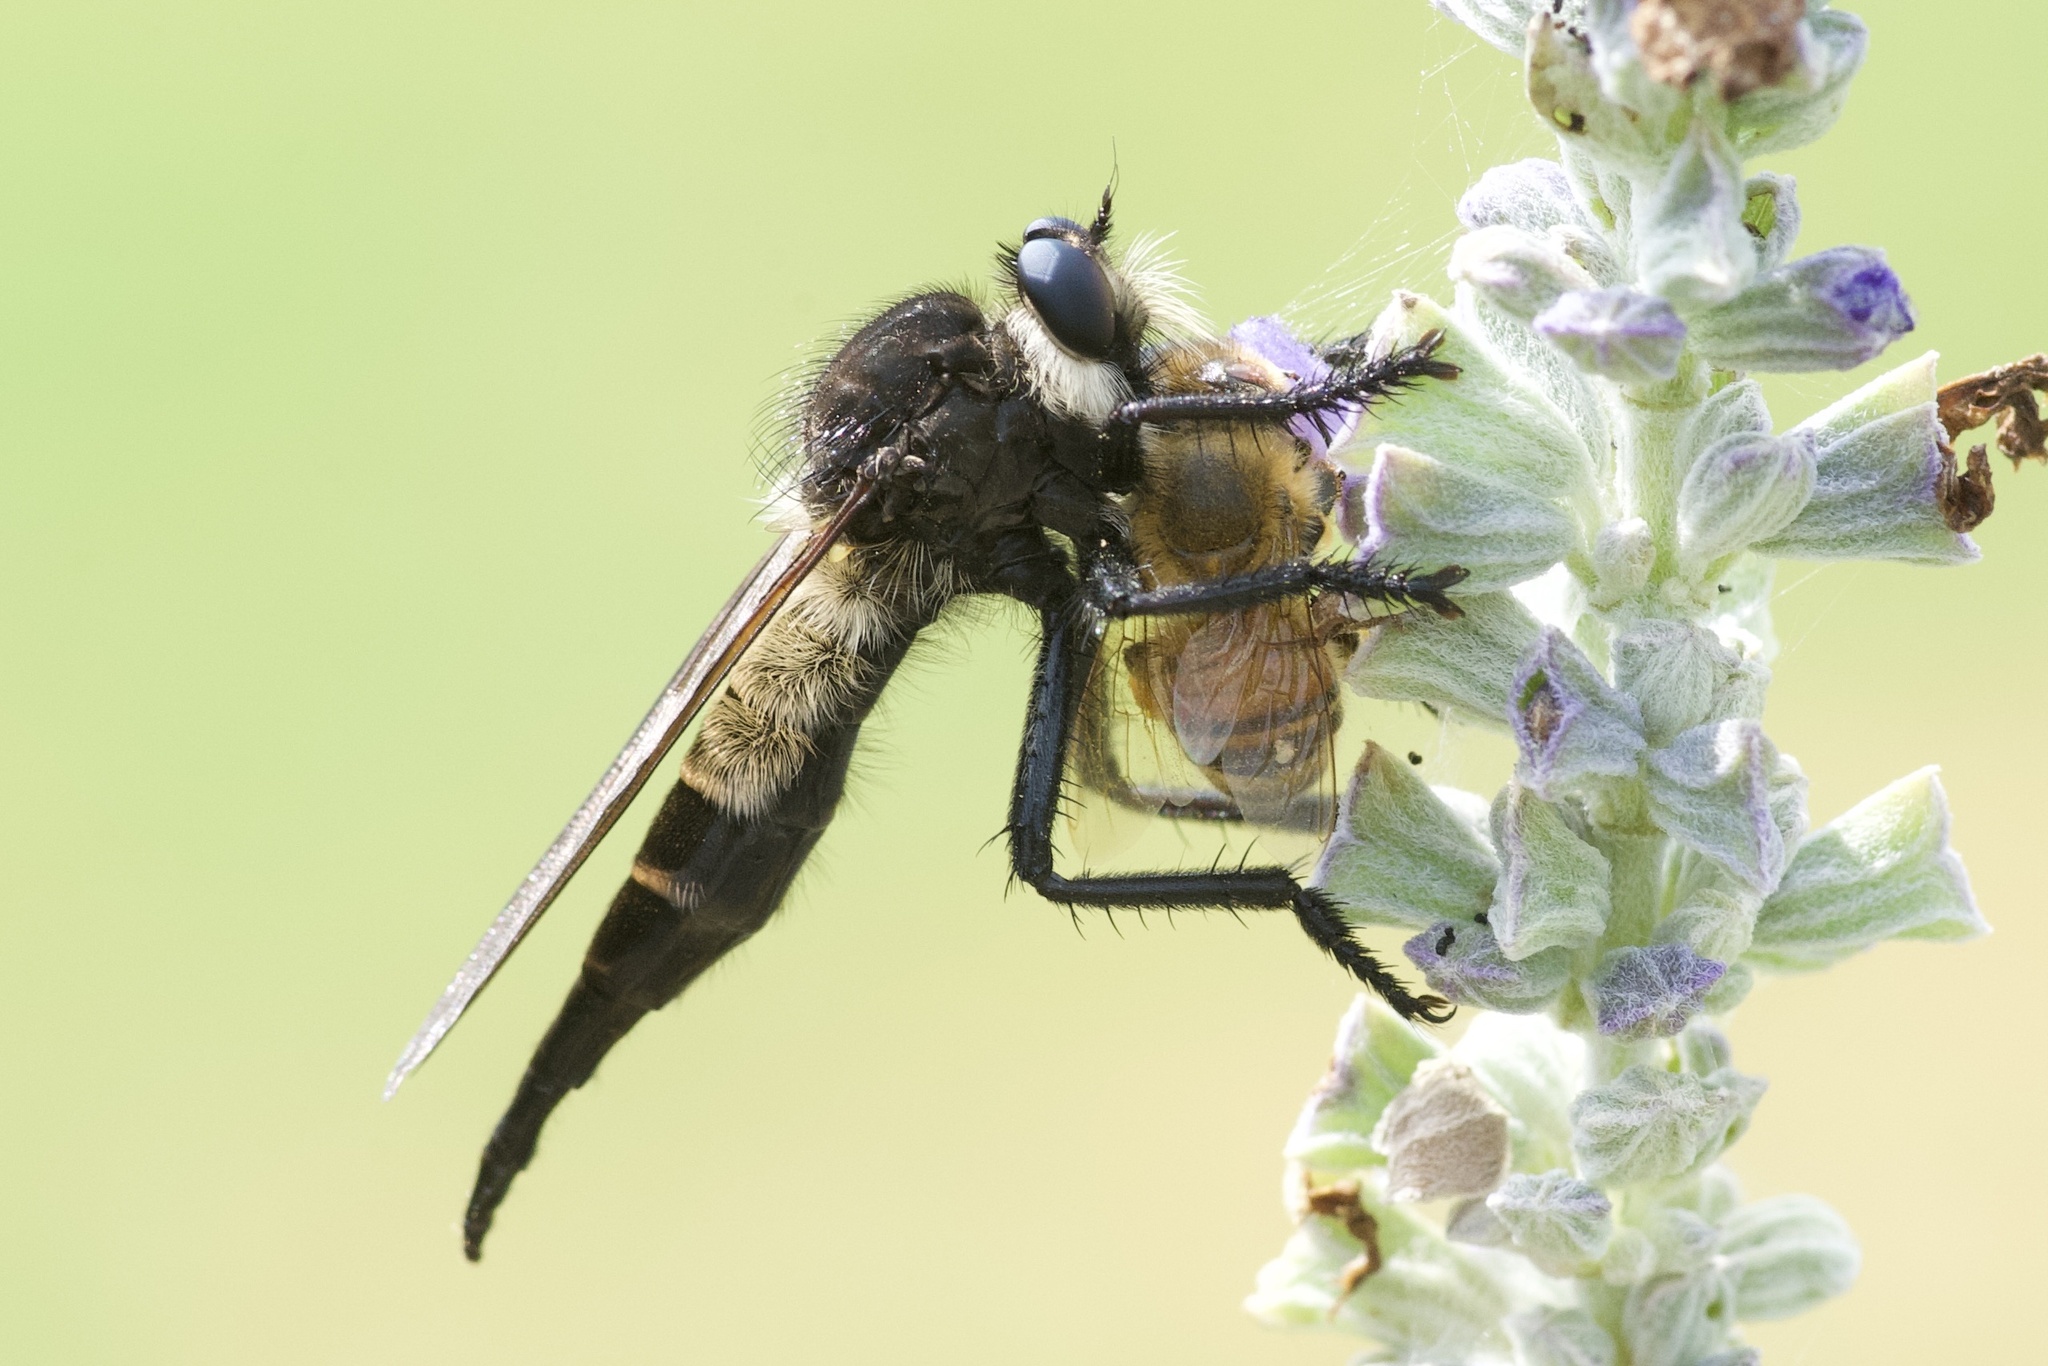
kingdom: Animalia
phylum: Arthropoda
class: Insecta
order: Diptera
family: Asilidae
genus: Promachus
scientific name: Promachus painteri
